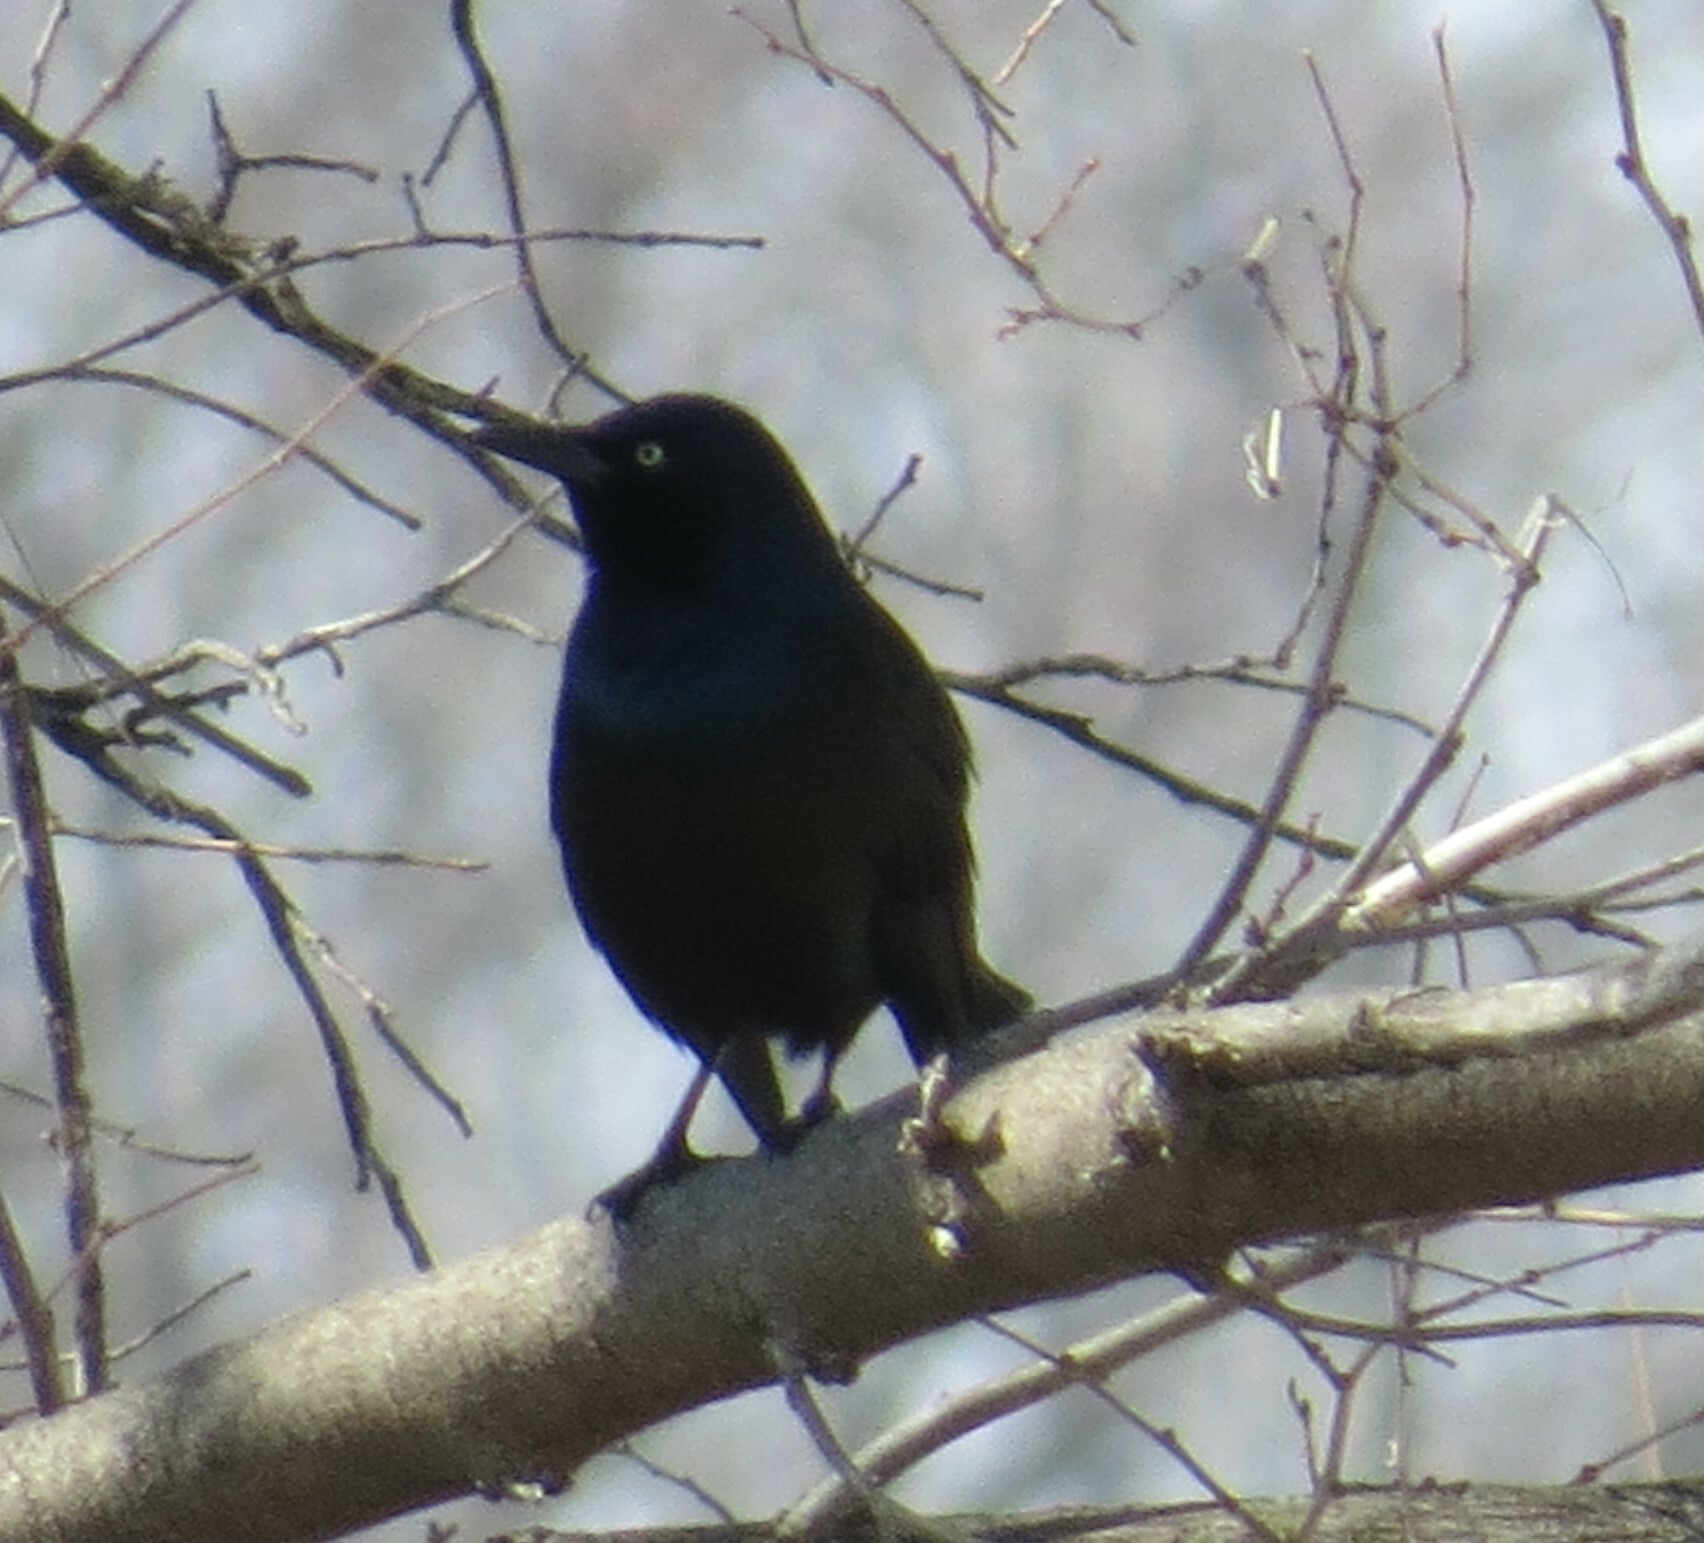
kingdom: Animalia
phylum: Chordata
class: Aves
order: Passeriformes
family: Icteridae
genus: Quiscalus
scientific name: Quiscalus quiscula
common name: Common grackle
